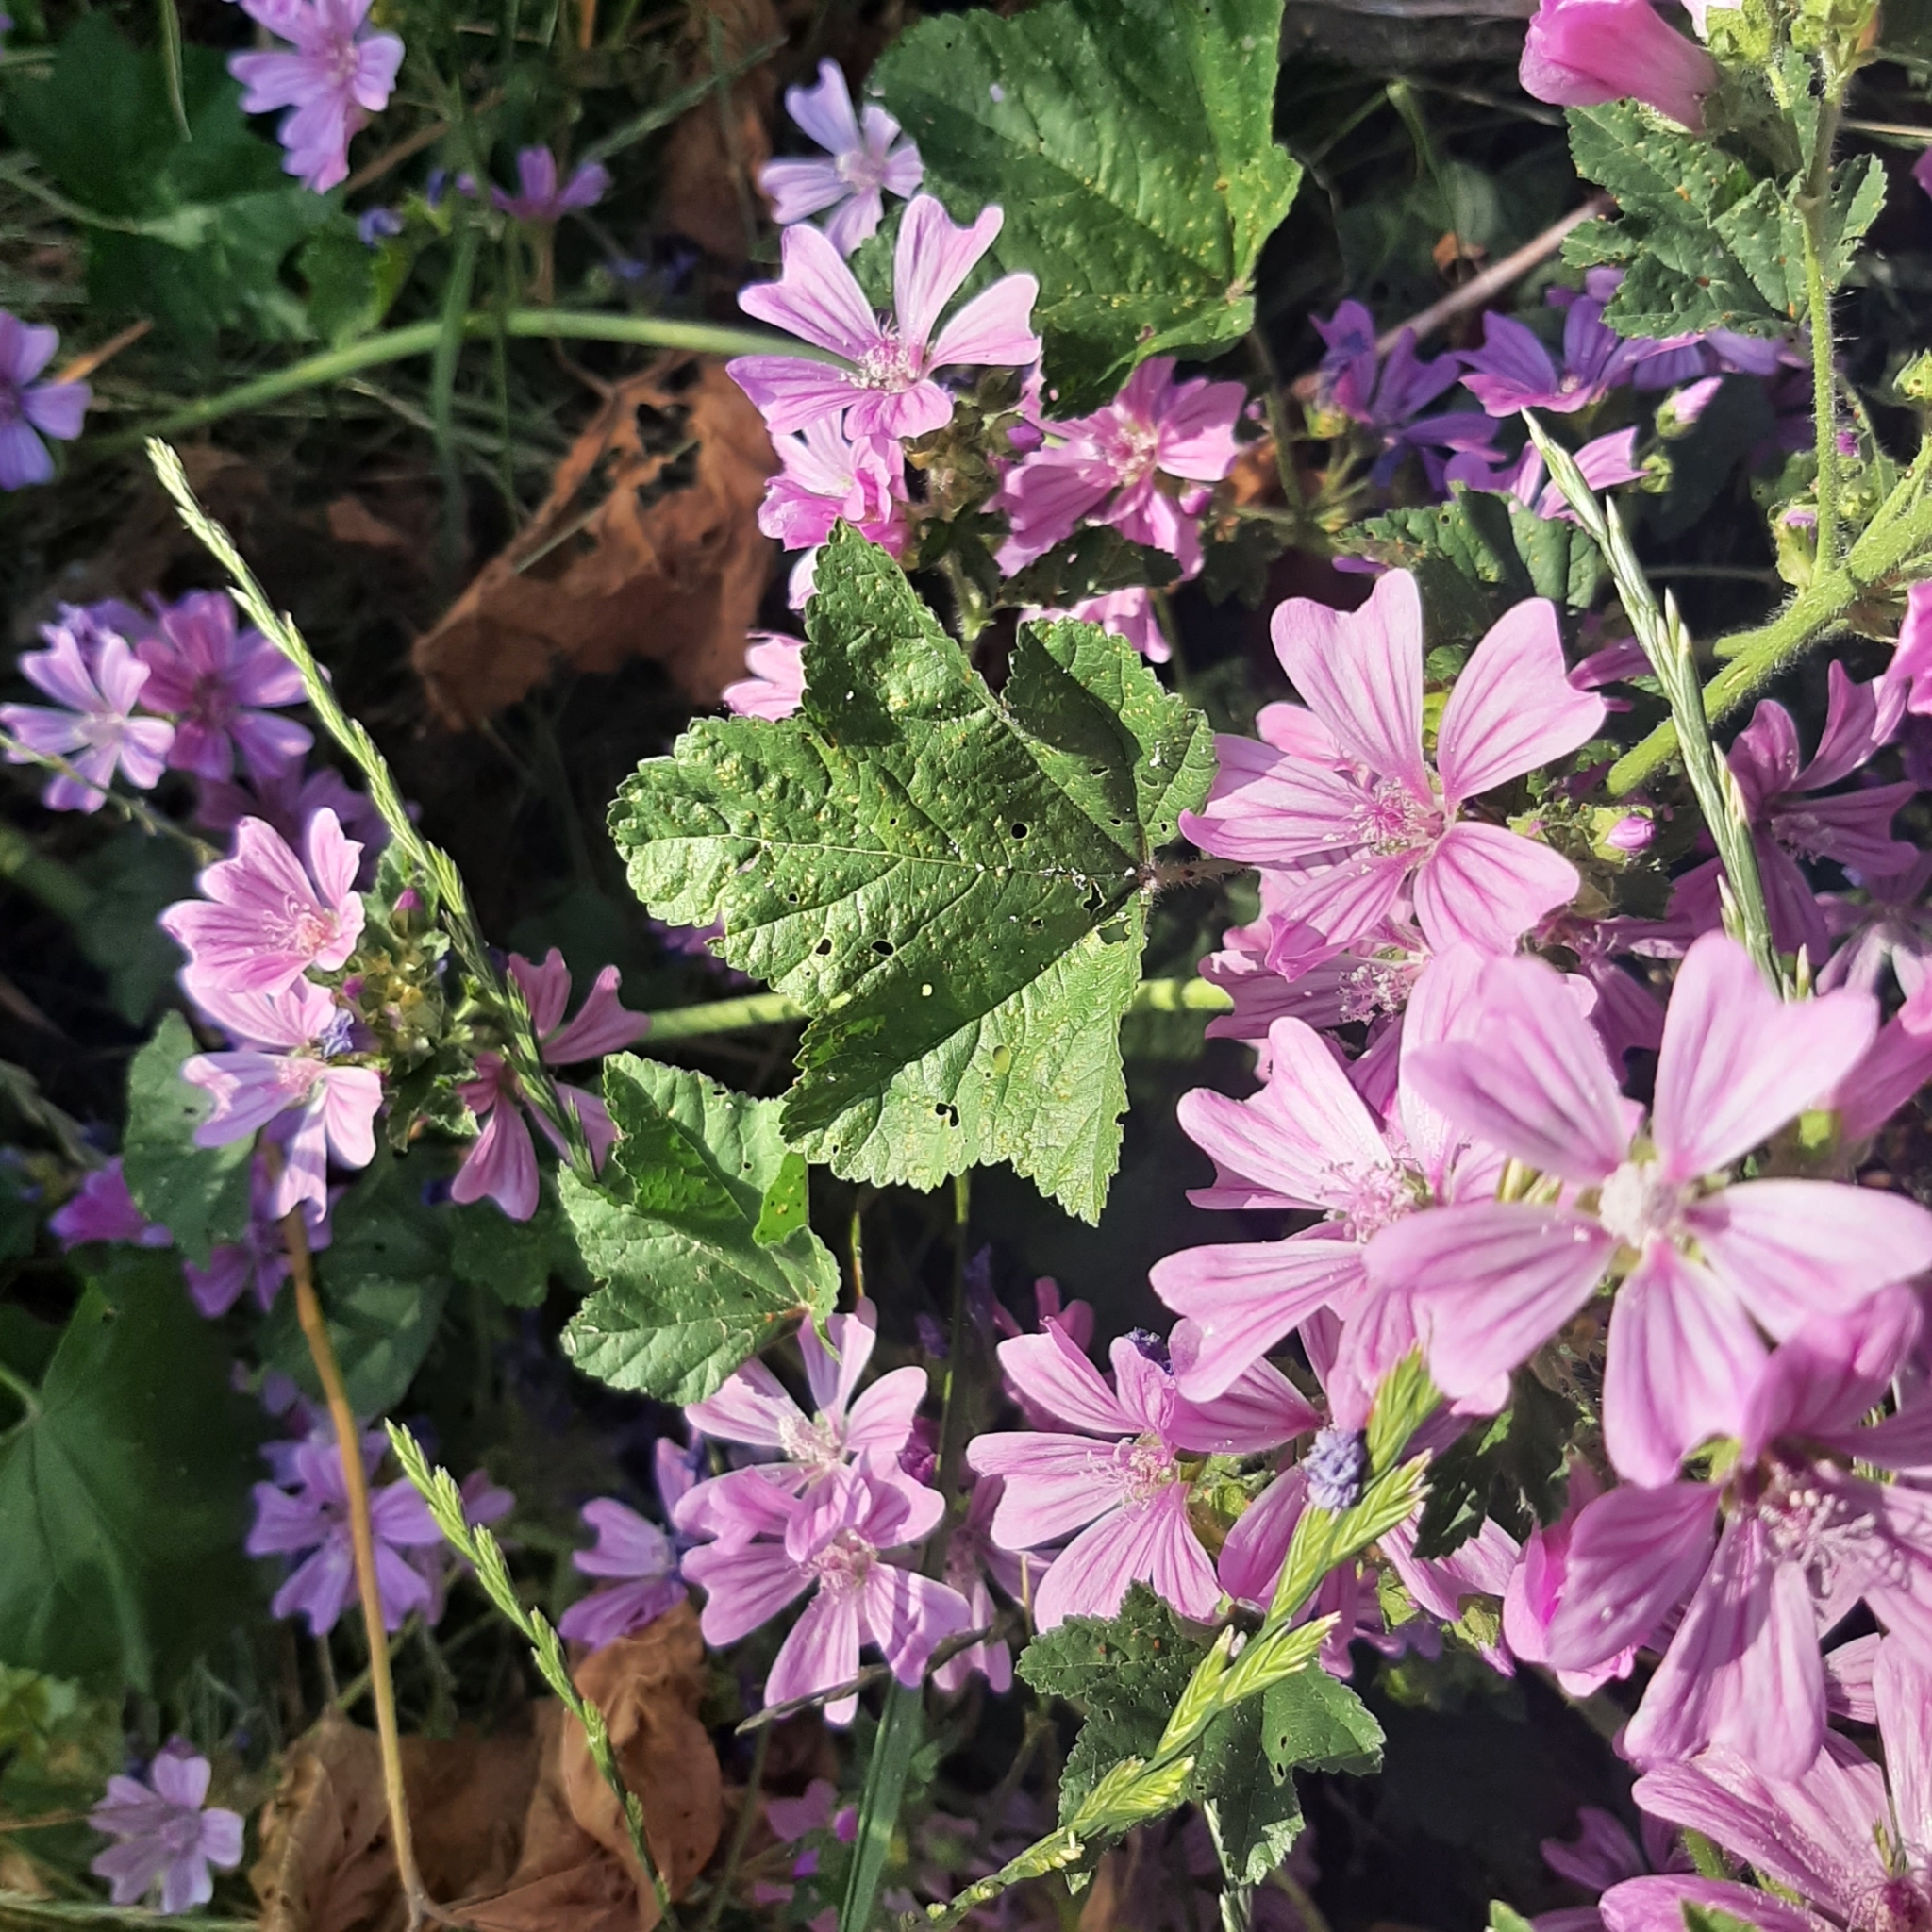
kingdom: Plantae
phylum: Tracheophyta
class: Magnoliopsida
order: Malvales
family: Malvaceae
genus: Malva
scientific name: Malva sylvestris
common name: Common mallow
